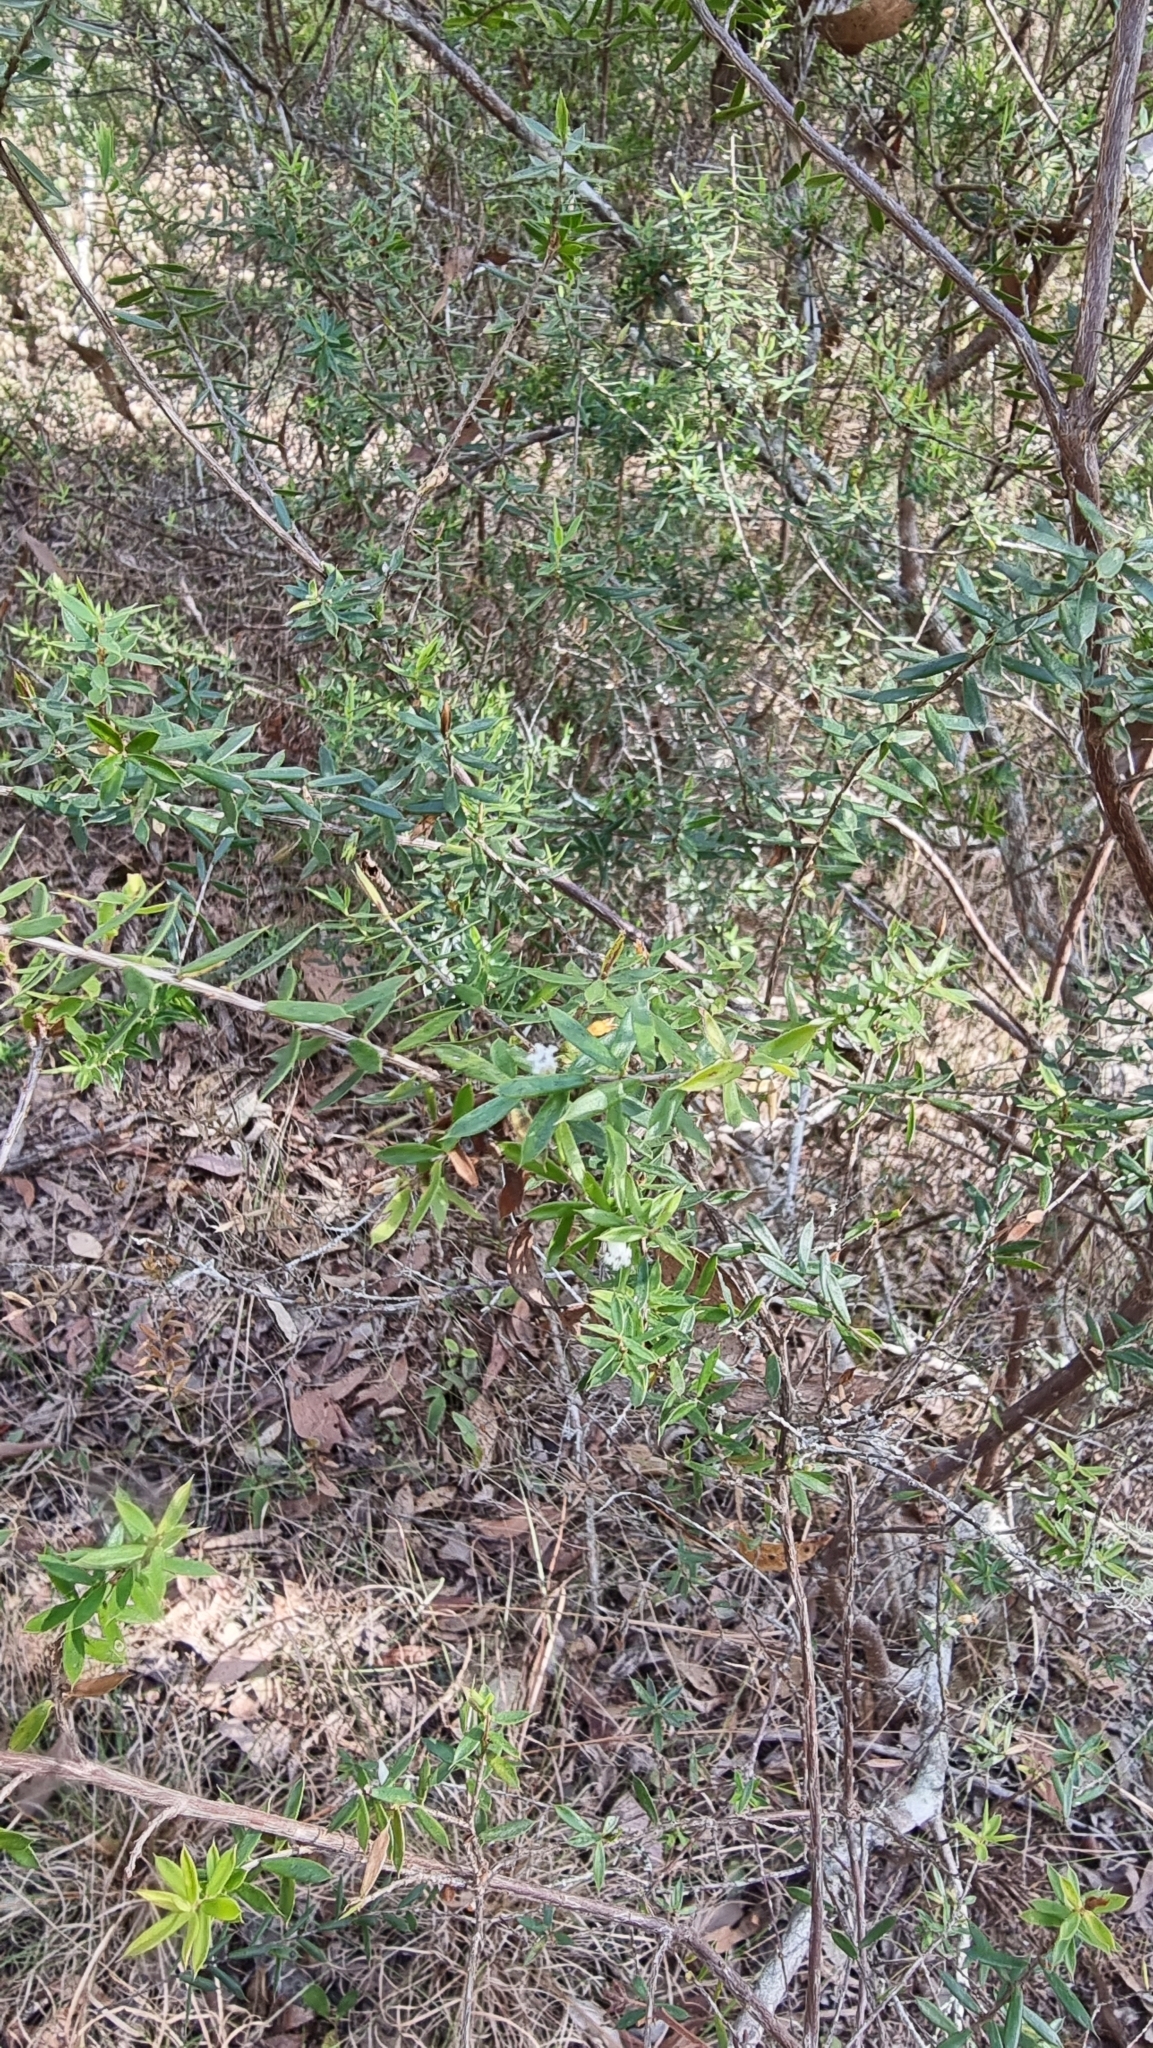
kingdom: Plantae
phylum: Tracheophyta
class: Magnoliopsida
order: Ericales
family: Ericaceae
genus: Styphelia
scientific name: Styphelia trichostyla
